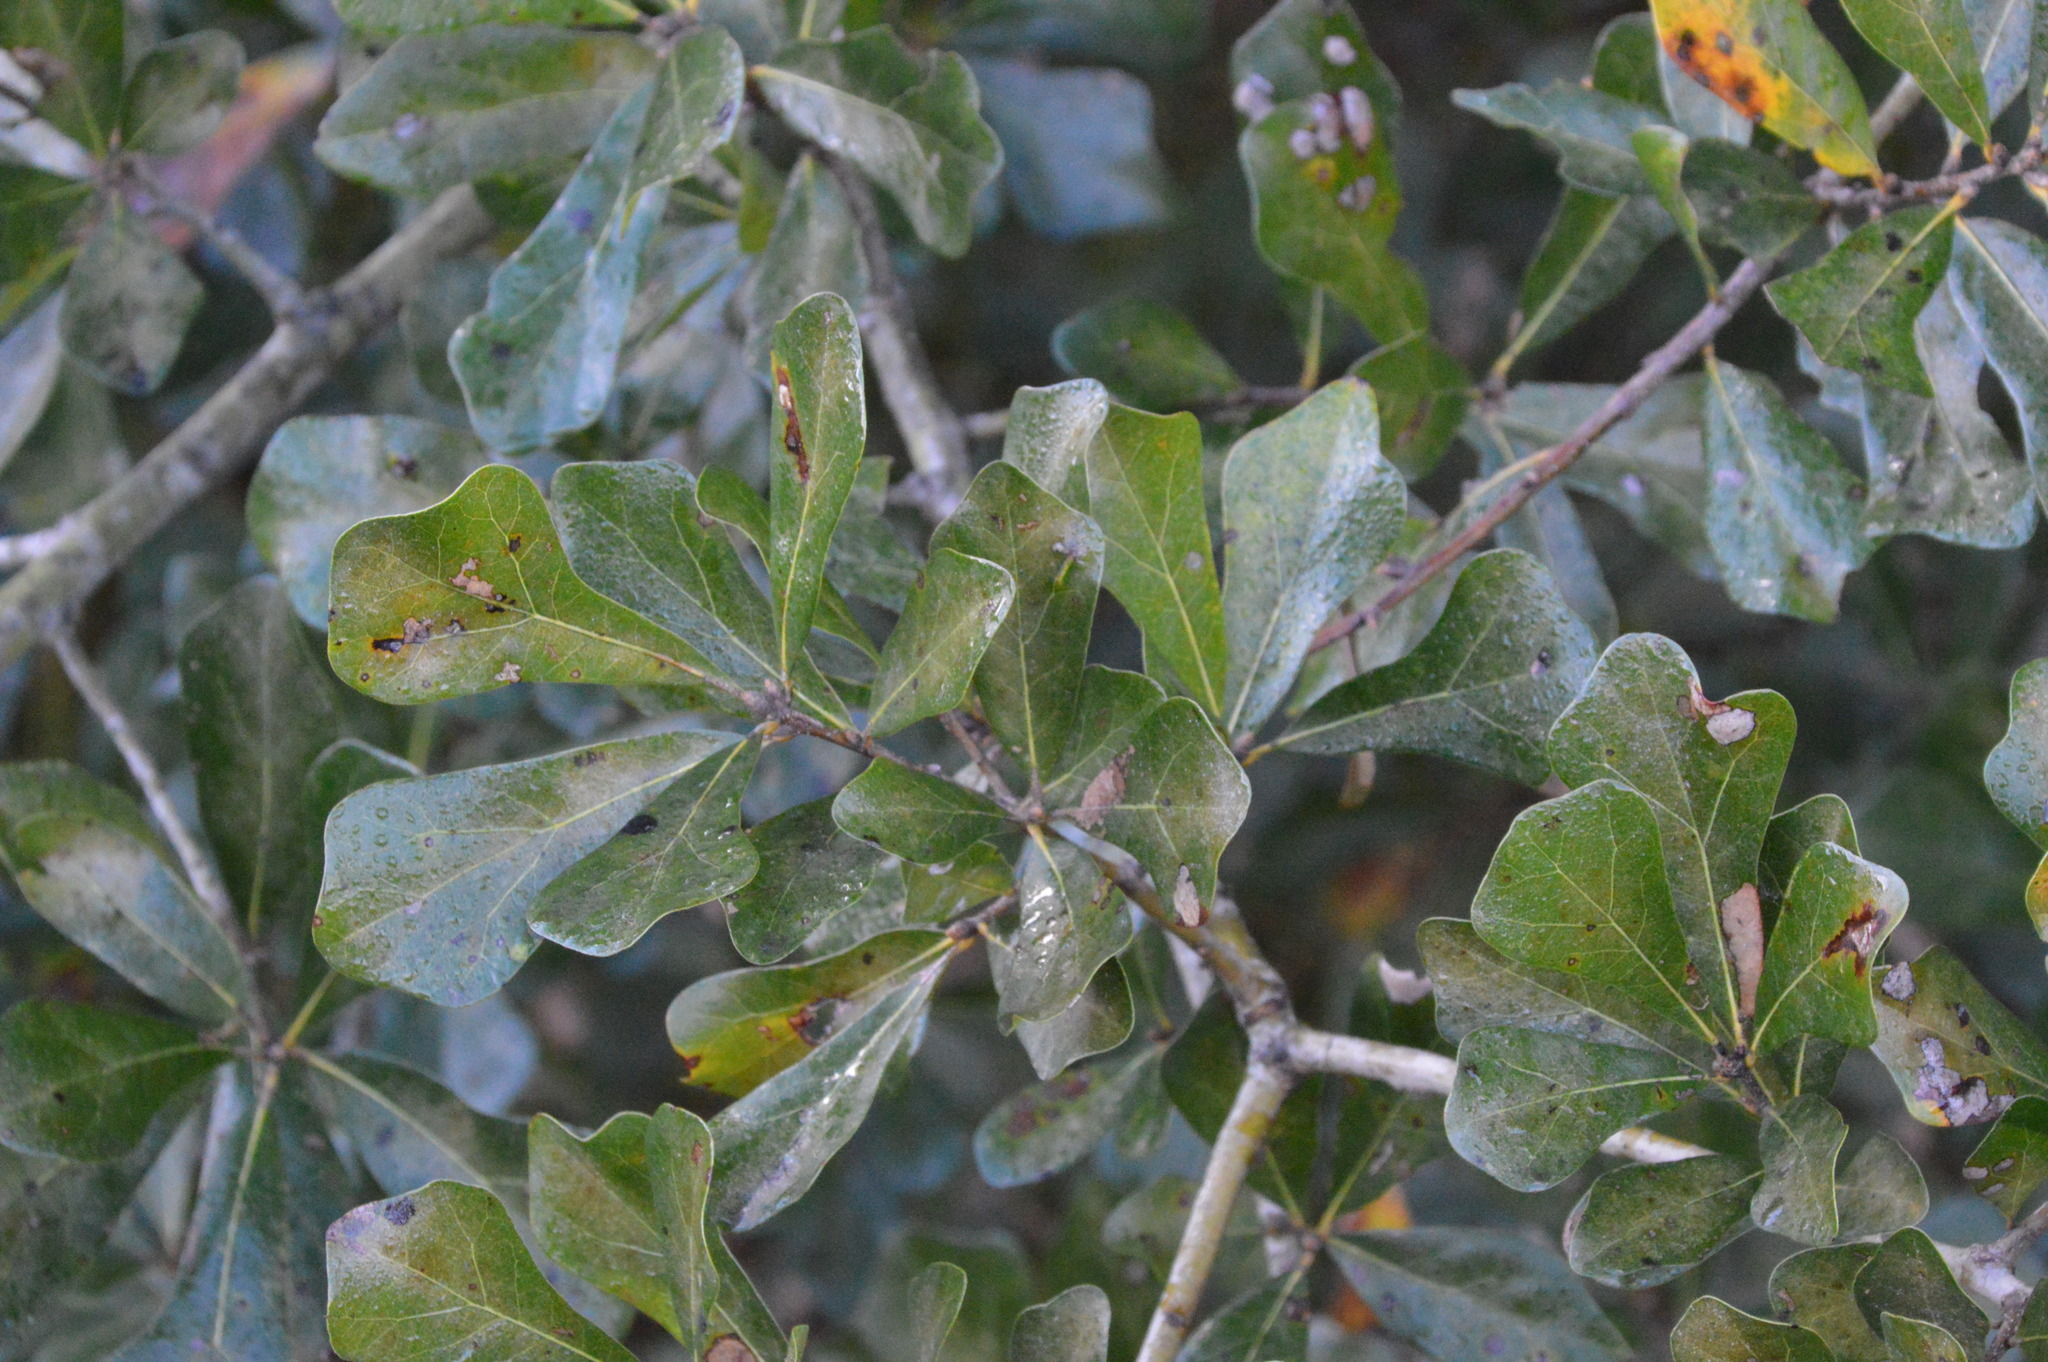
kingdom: Plantae
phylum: Tracheophyta
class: Magnoliopsida
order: Fagales
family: Fagaceae
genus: Quercus
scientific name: Quercus nigra
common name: Water oak
